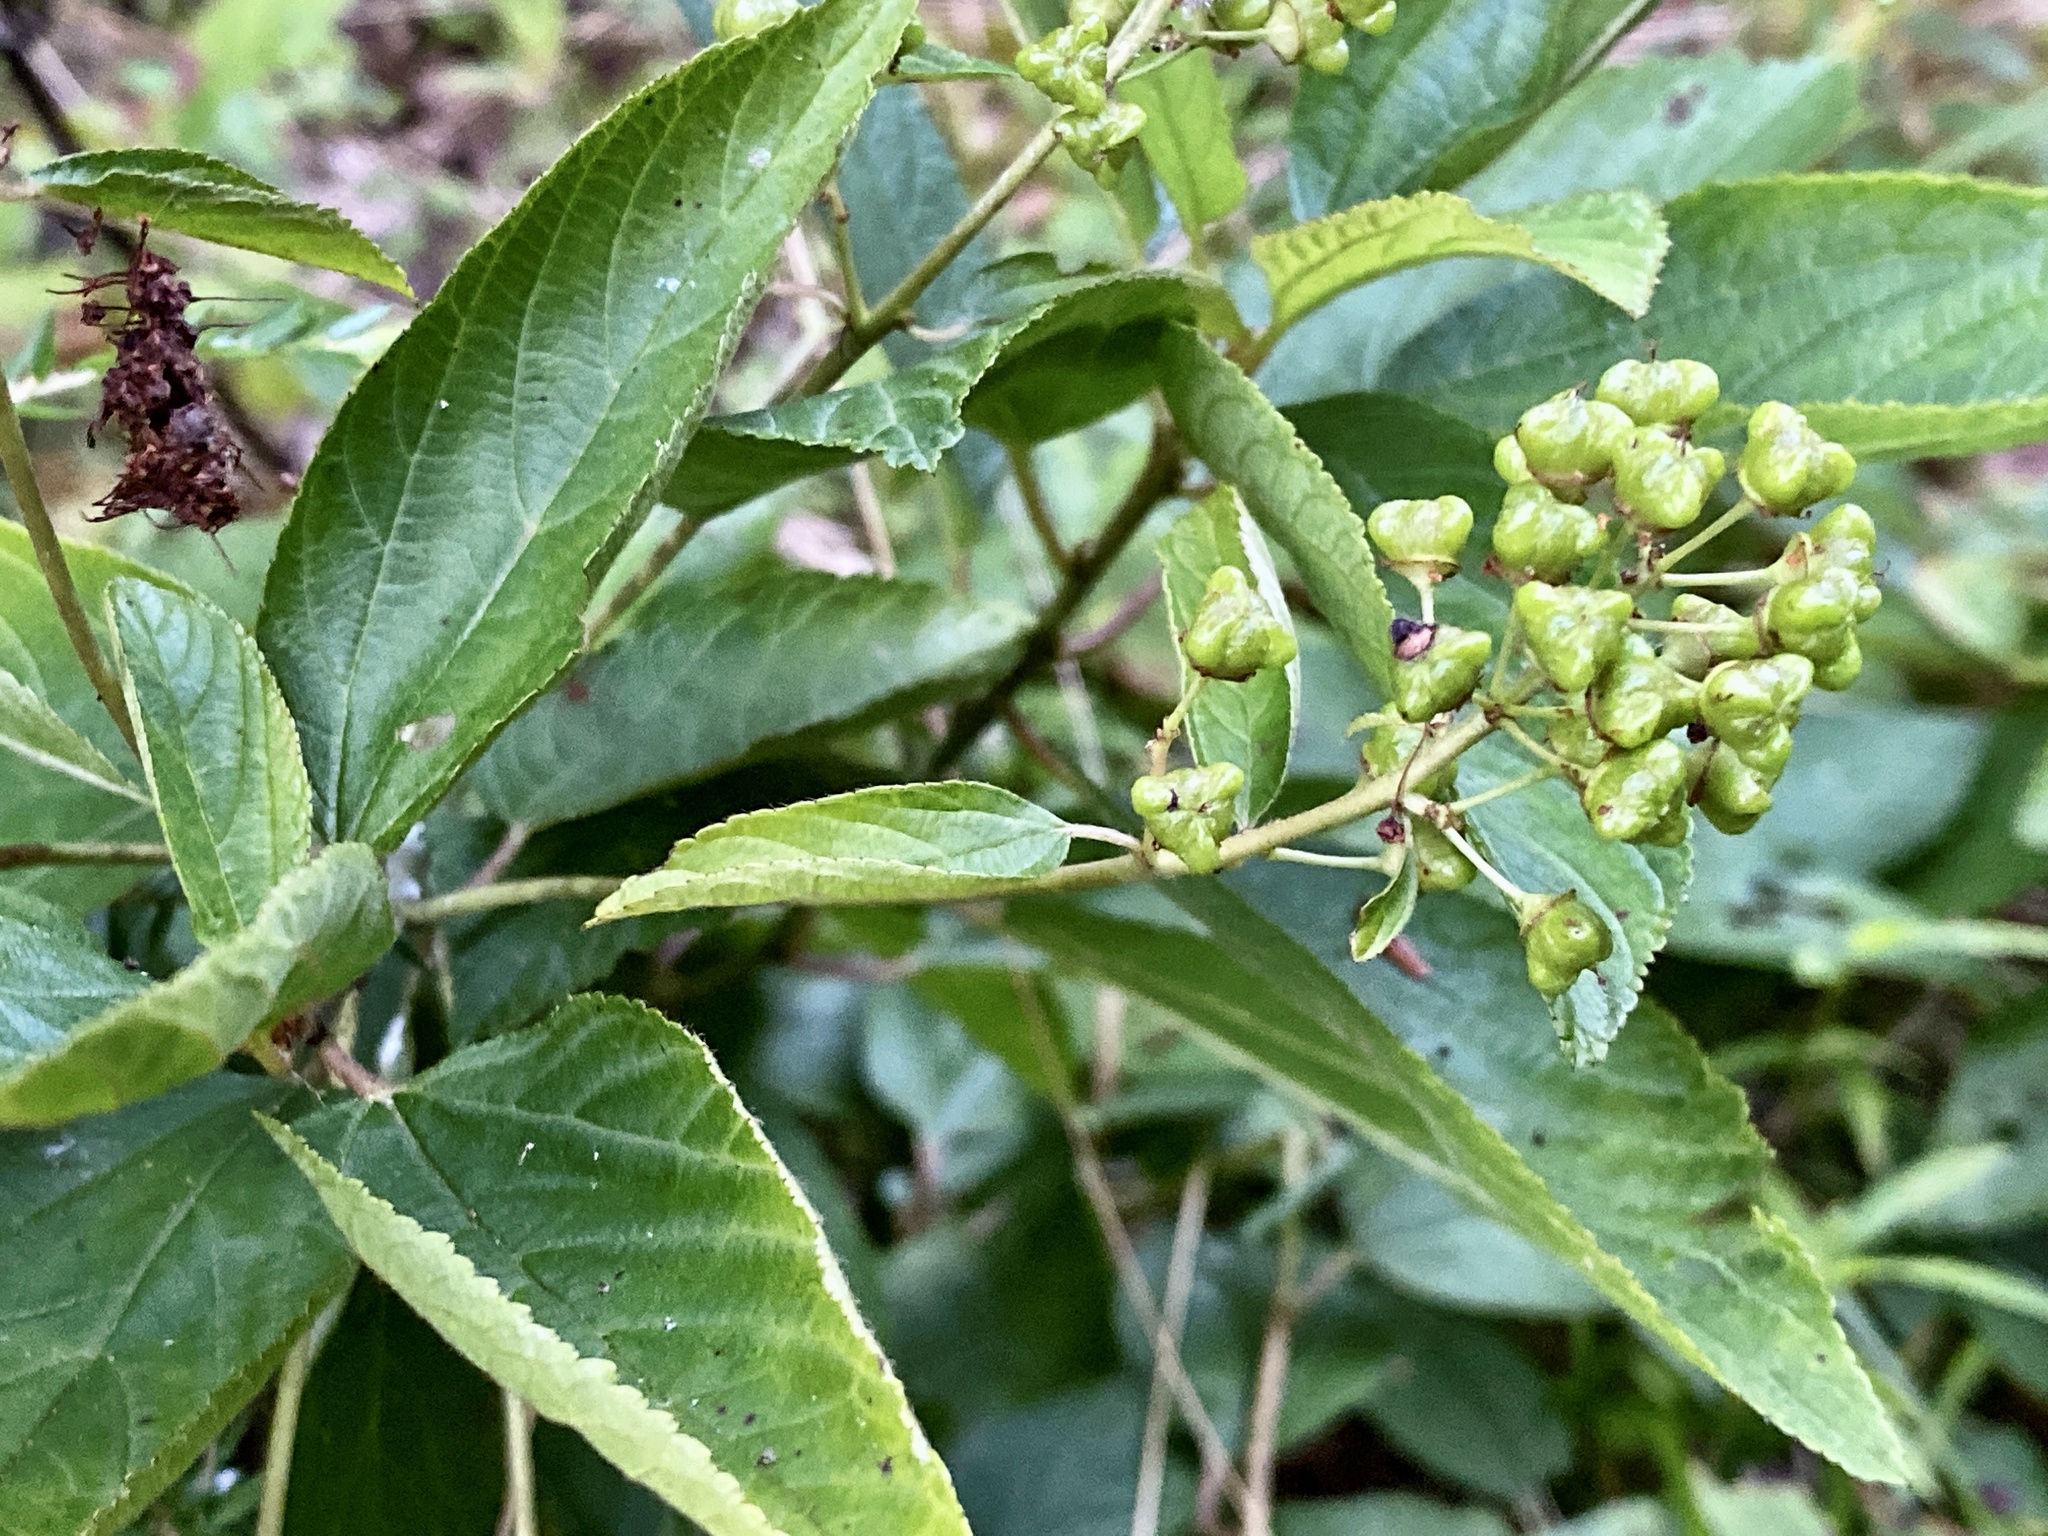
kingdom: Plantae
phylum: Tracheophyta
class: Magnoliopsida
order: Rosales
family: Rhamnaceae
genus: Ceanothus
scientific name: Ceanothus americanus
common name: Redroot
